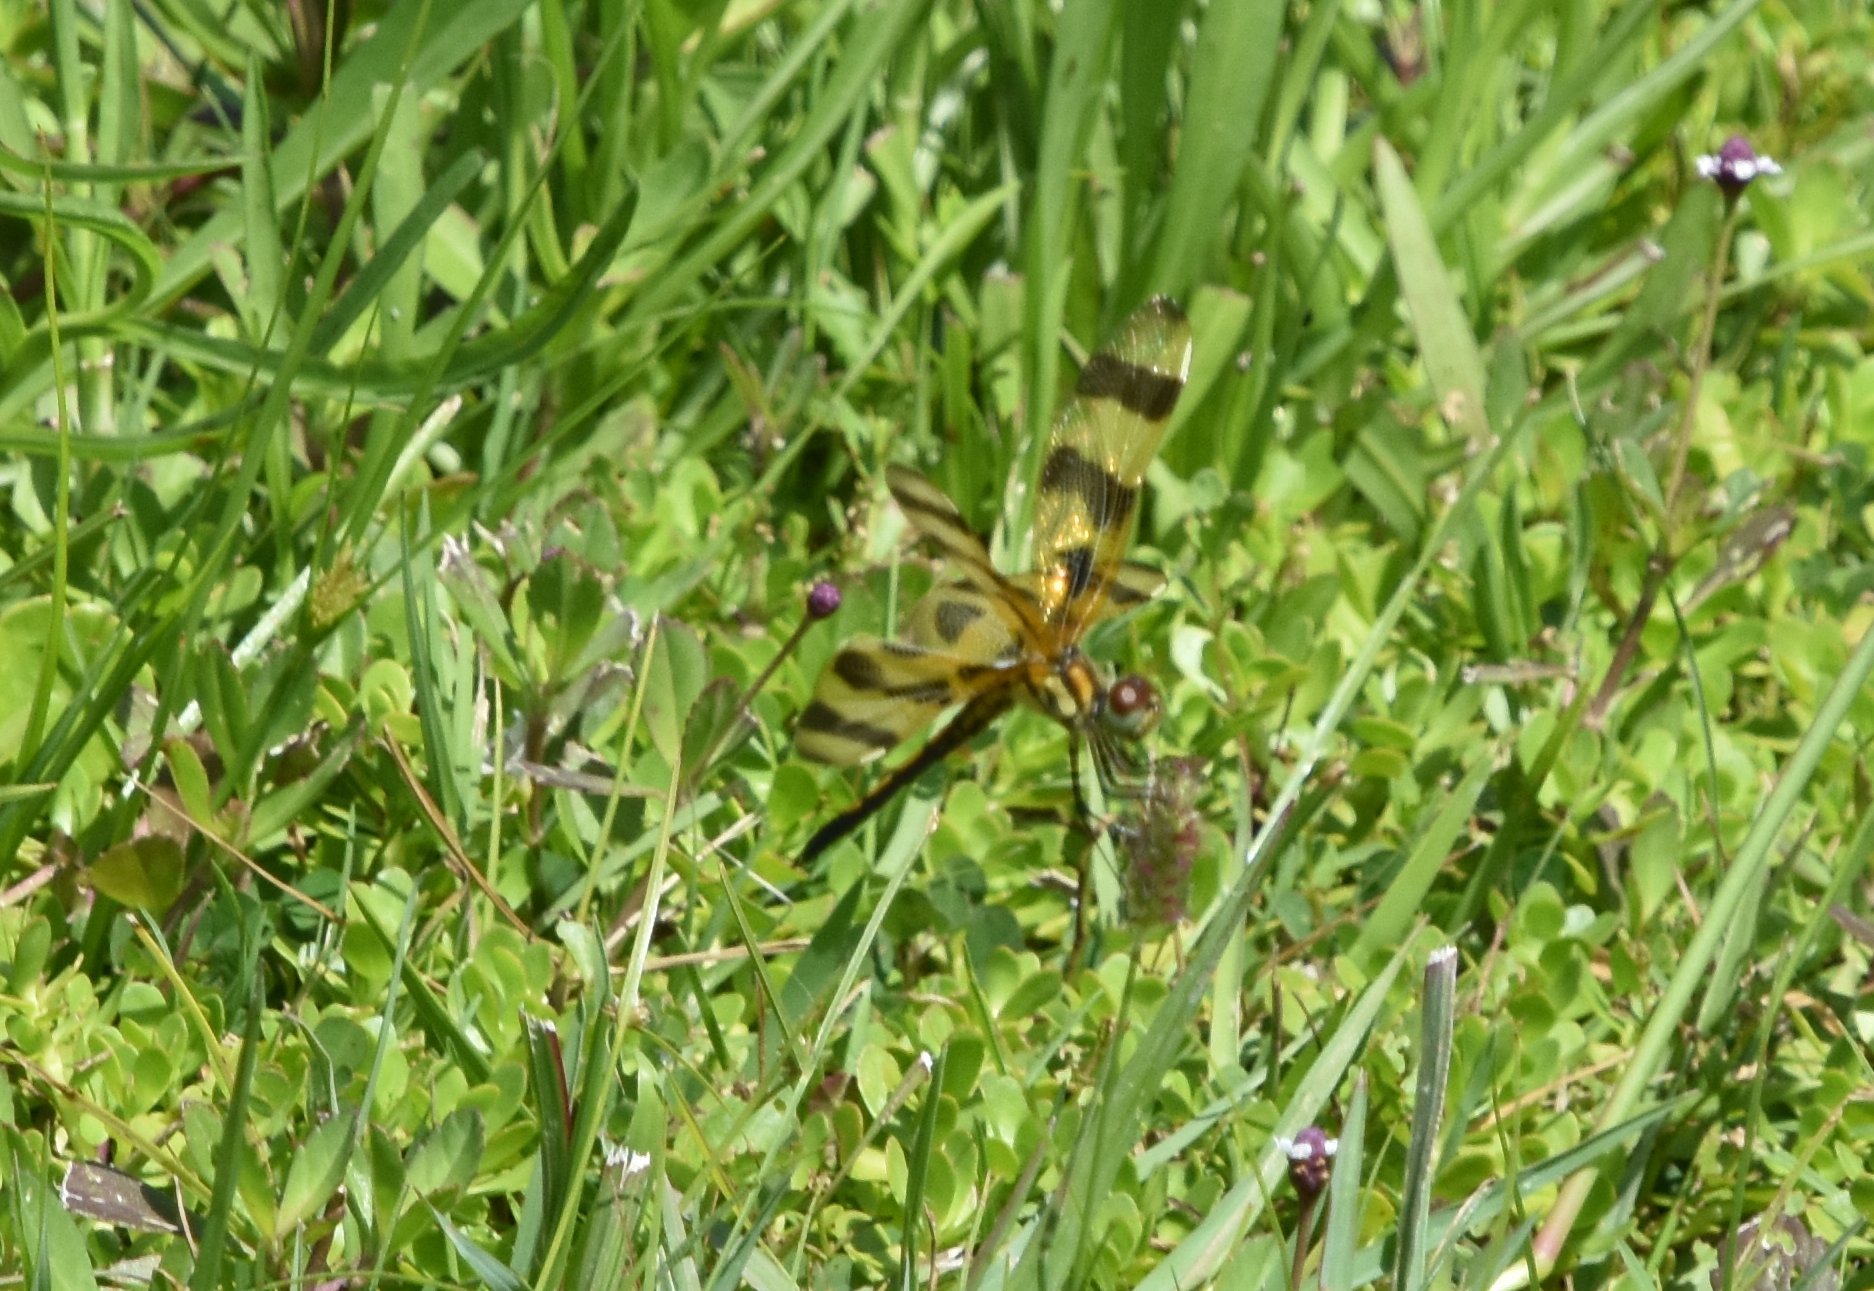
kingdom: Animalia
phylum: Arthropoda
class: Insecta
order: Odonata
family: Libellulidae
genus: Celithemis
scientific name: Celithemis eponina
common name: Halloween pennant
